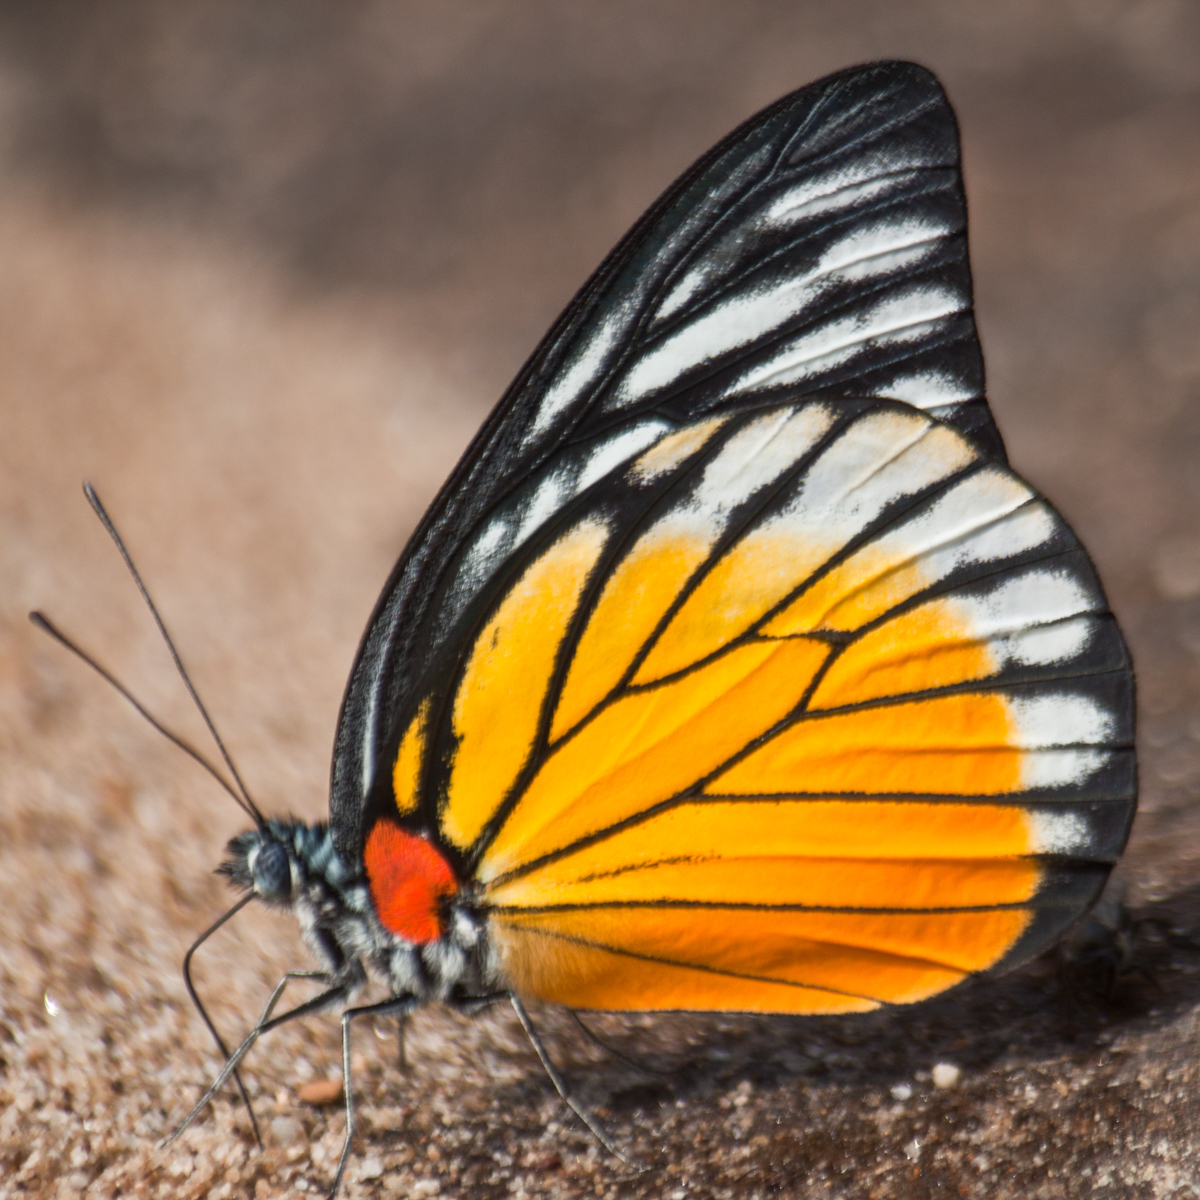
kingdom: Animalia
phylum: Arthropoda
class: Insecta
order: Lepidoptera
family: Pieridae
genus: Prioneris
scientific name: Prioneris
